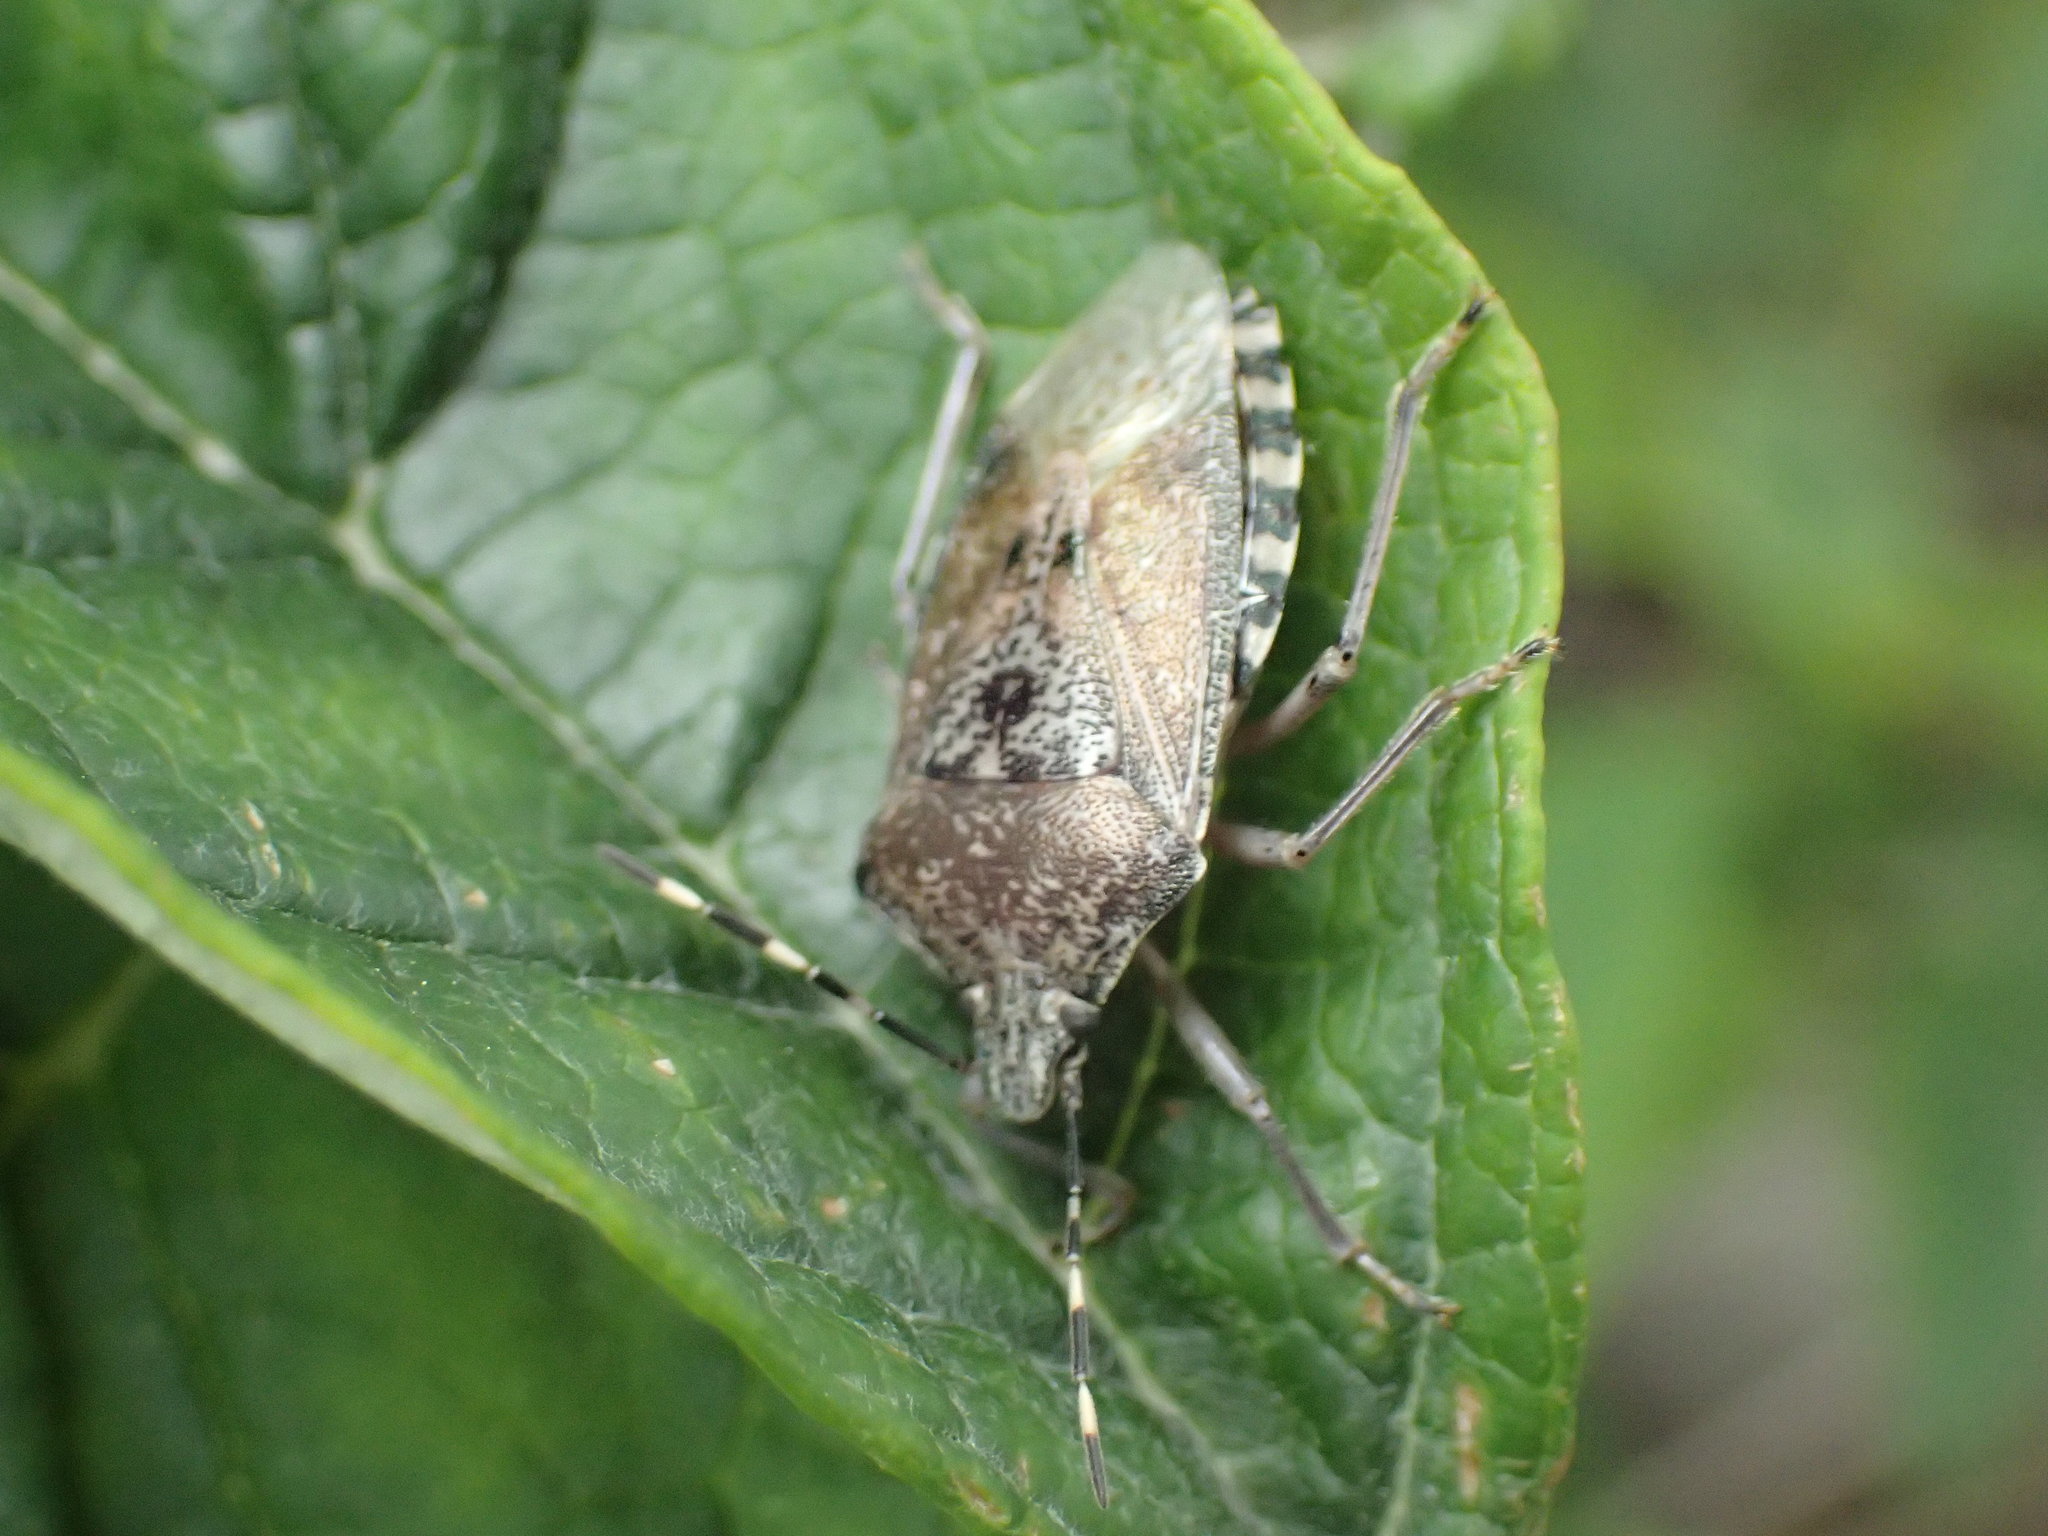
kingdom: Animalia
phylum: Arthropoda
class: Insecta
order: Hemiptera
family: Pentatomidae
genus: Rhaphigaster
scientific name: Rhaphigaster nebulosa
